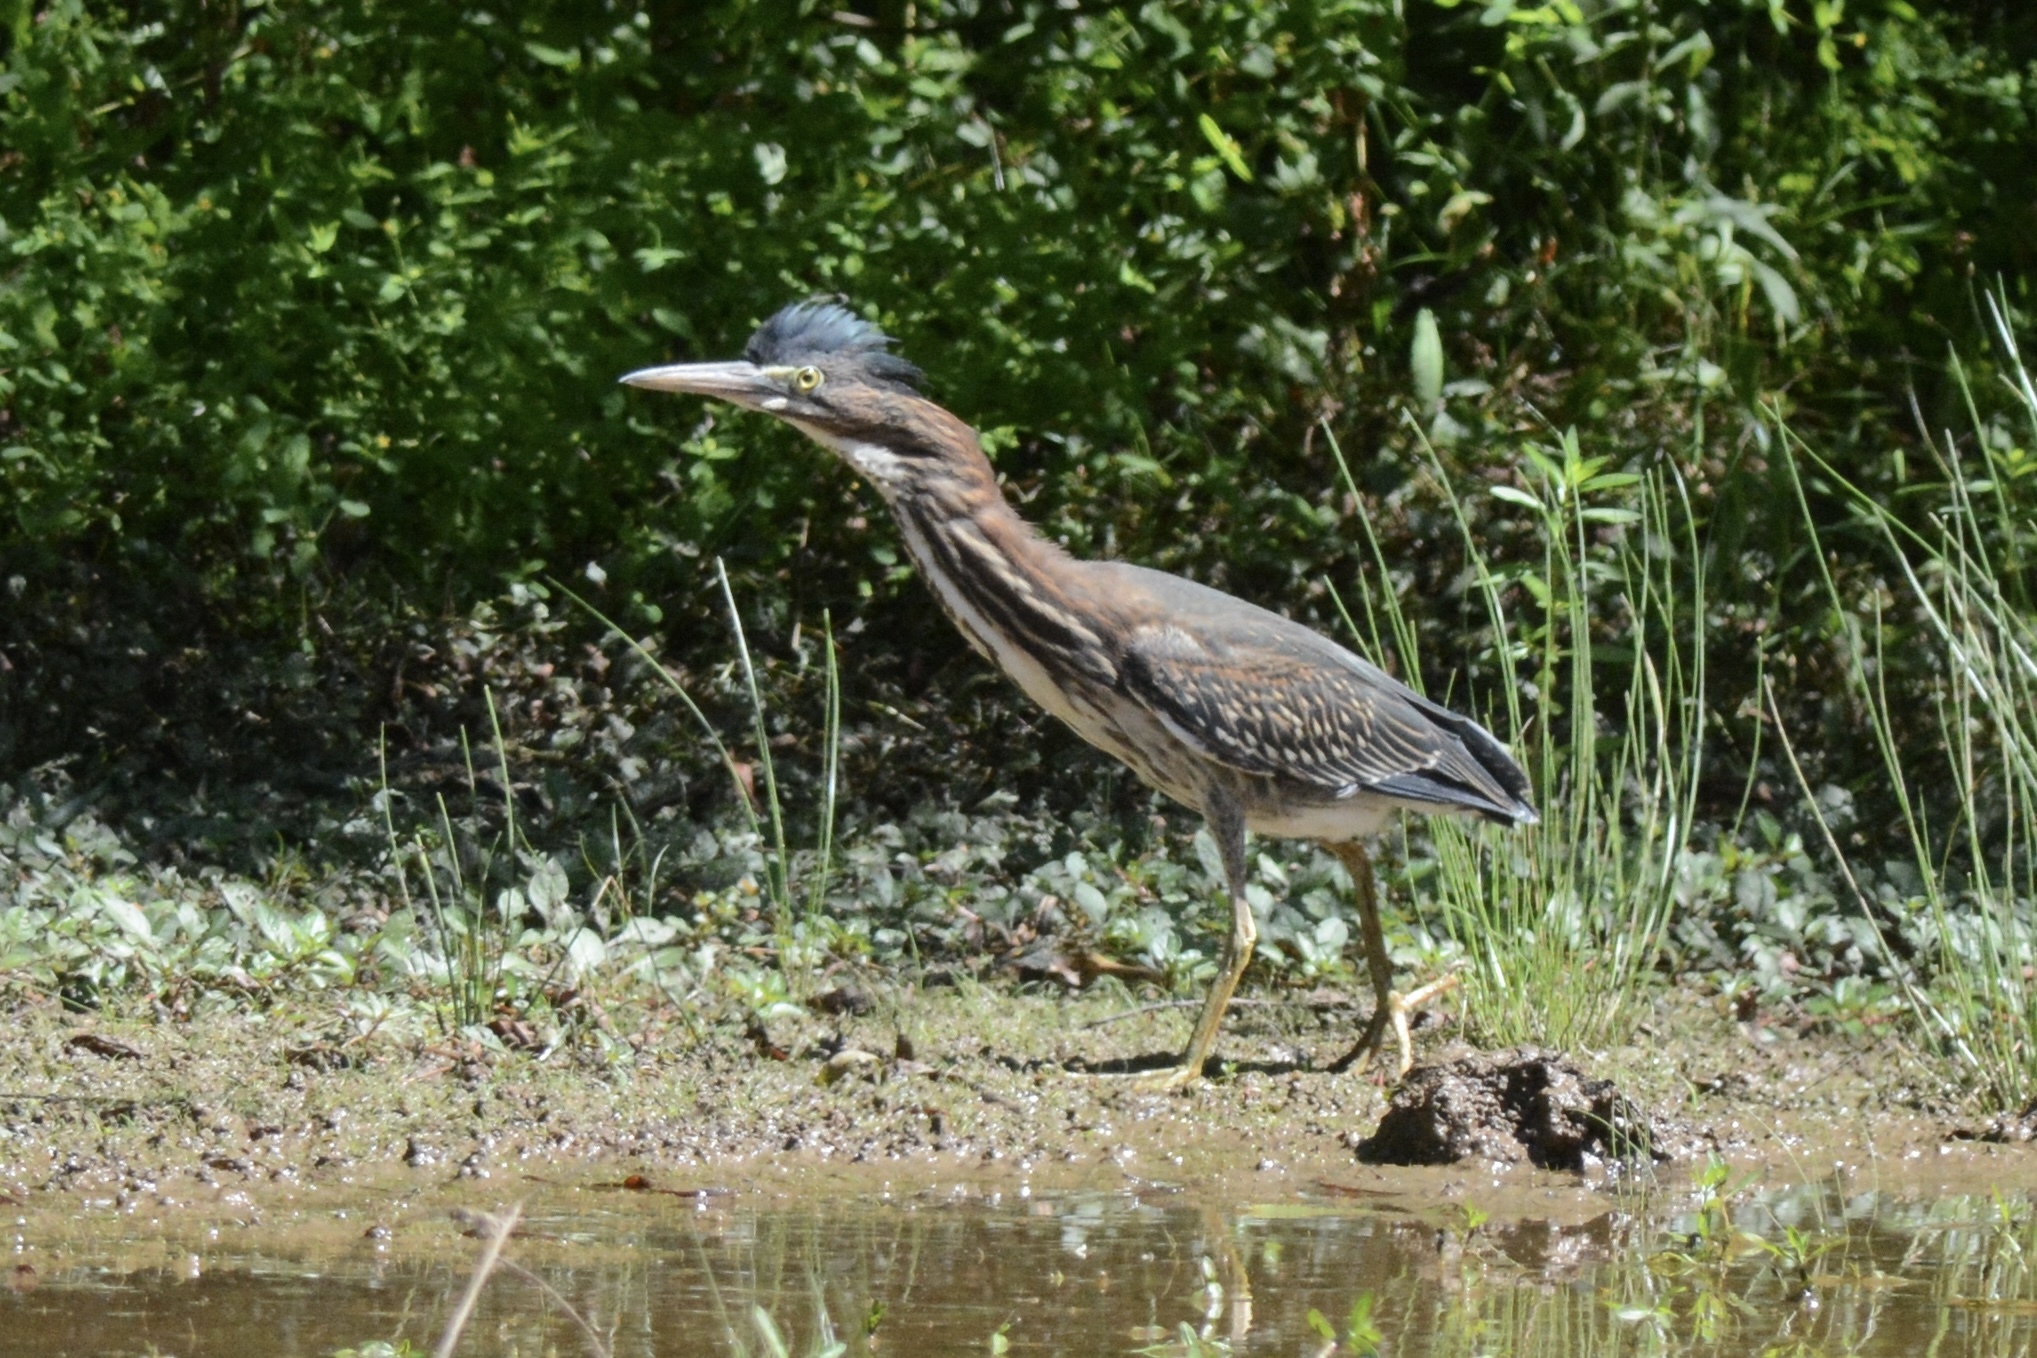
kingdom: Animalia
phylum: Chordata
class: Aves
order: Pelecaniformes
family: Ardeidae
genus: Butorides
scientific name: Butorides virescens
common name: Green heron
